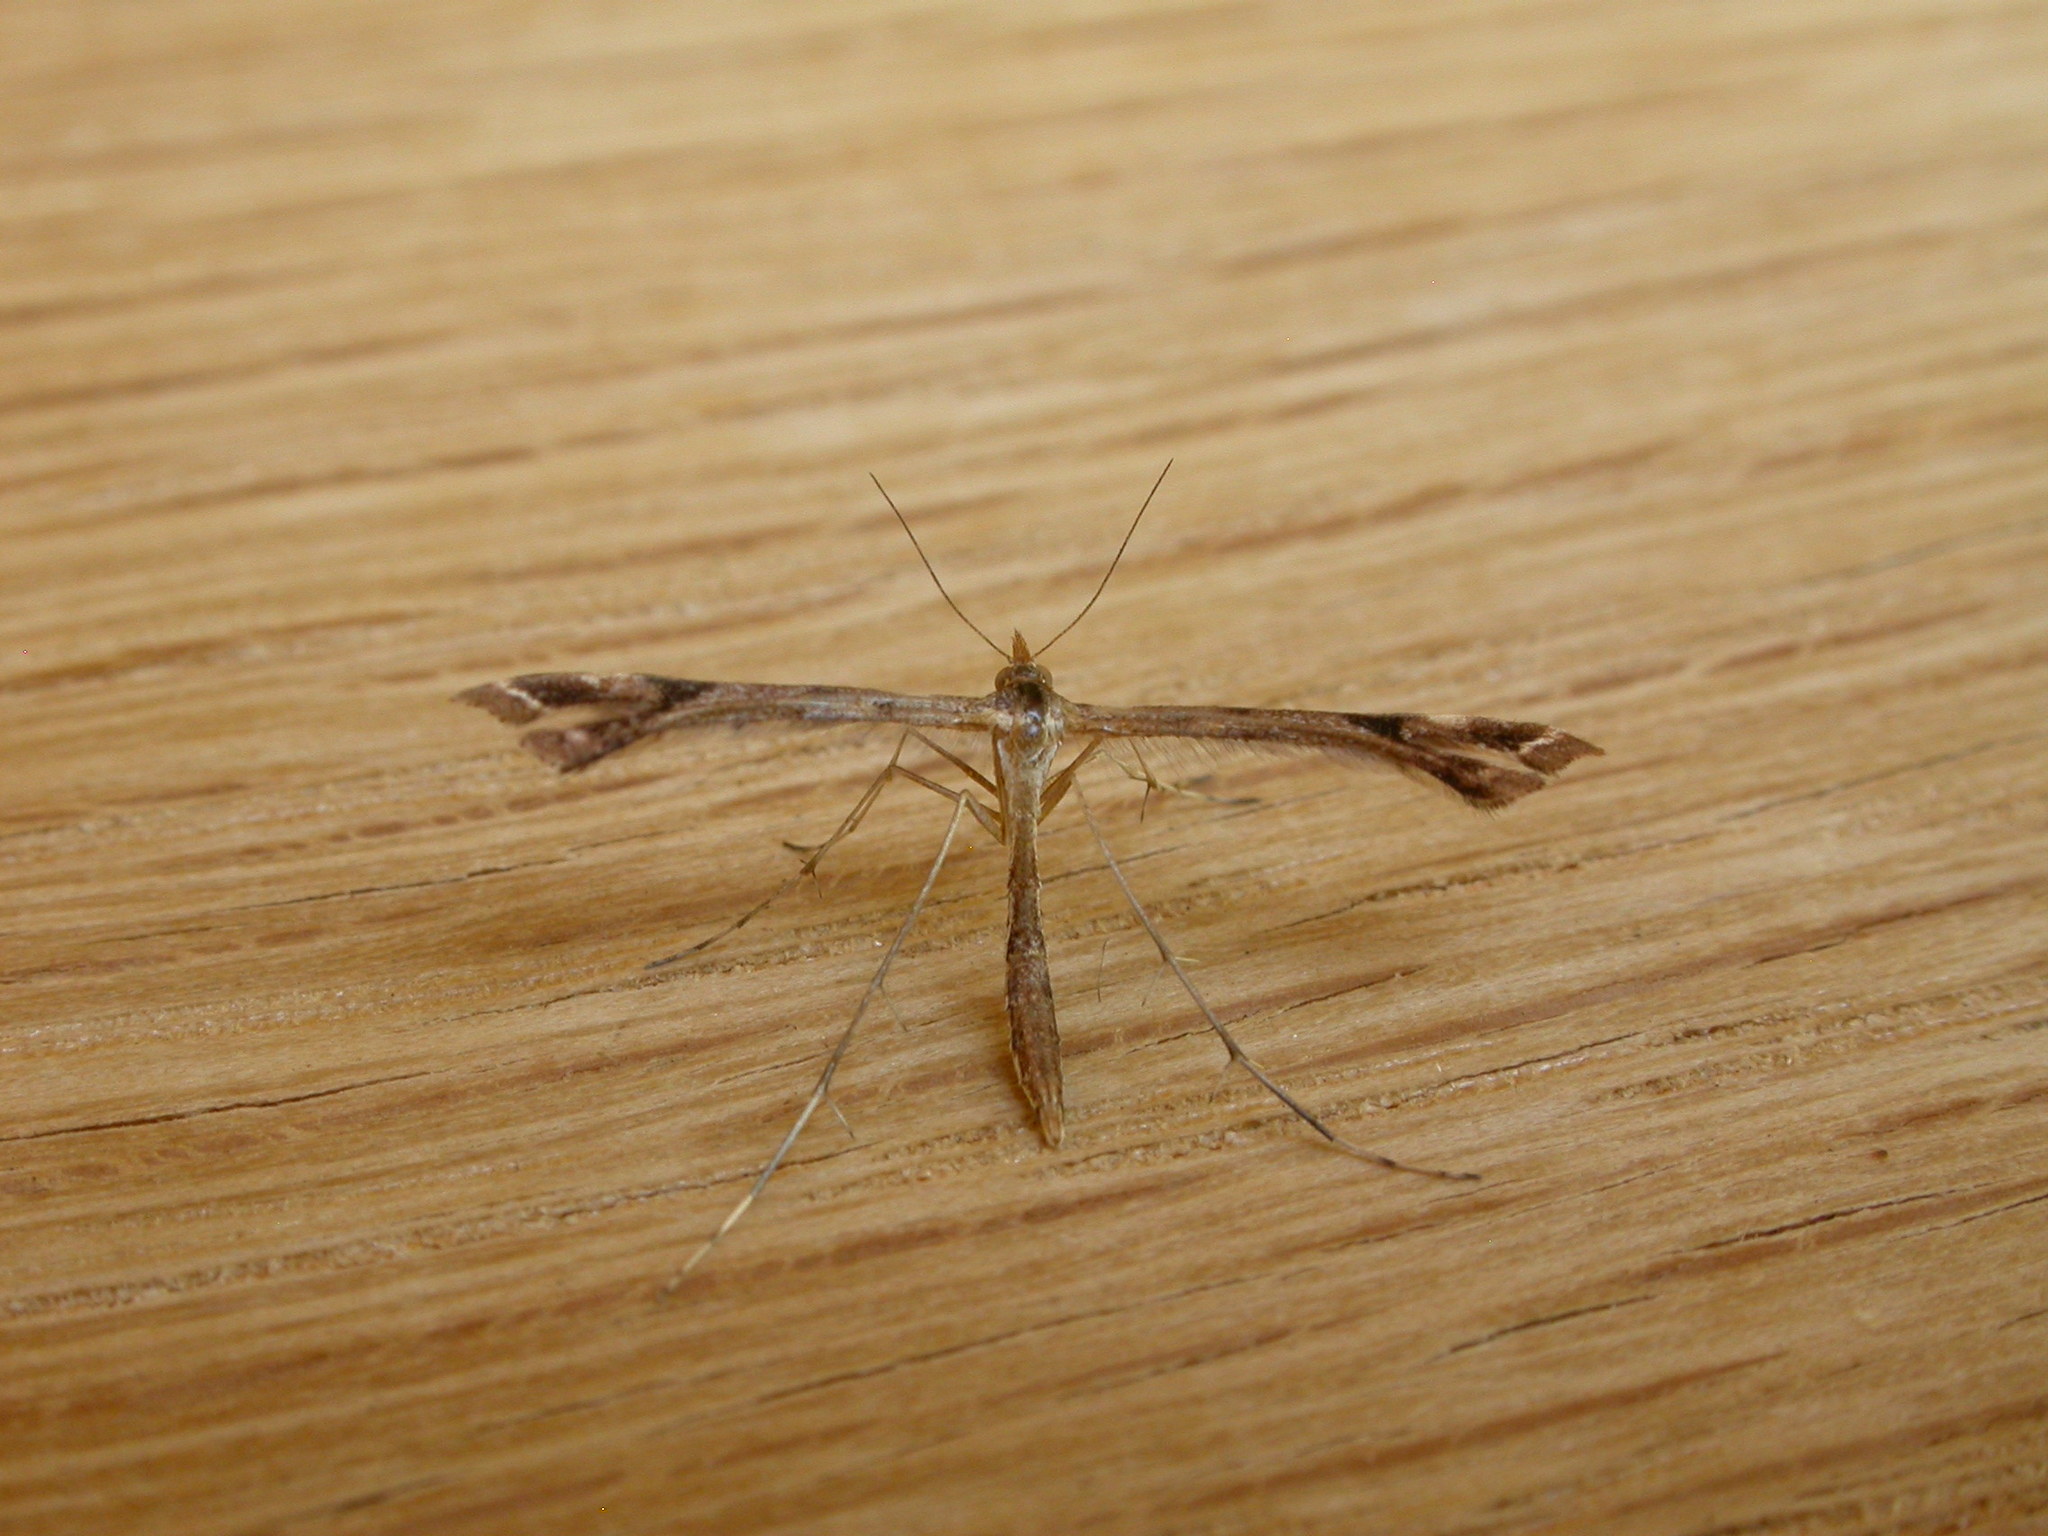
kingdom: Animalia
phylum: Arthropoda
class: Insecta
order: Lepidoptera
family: Pterophoridae
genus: Sinpunctiptilia
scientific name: Sinpunctiptilia emissalis
